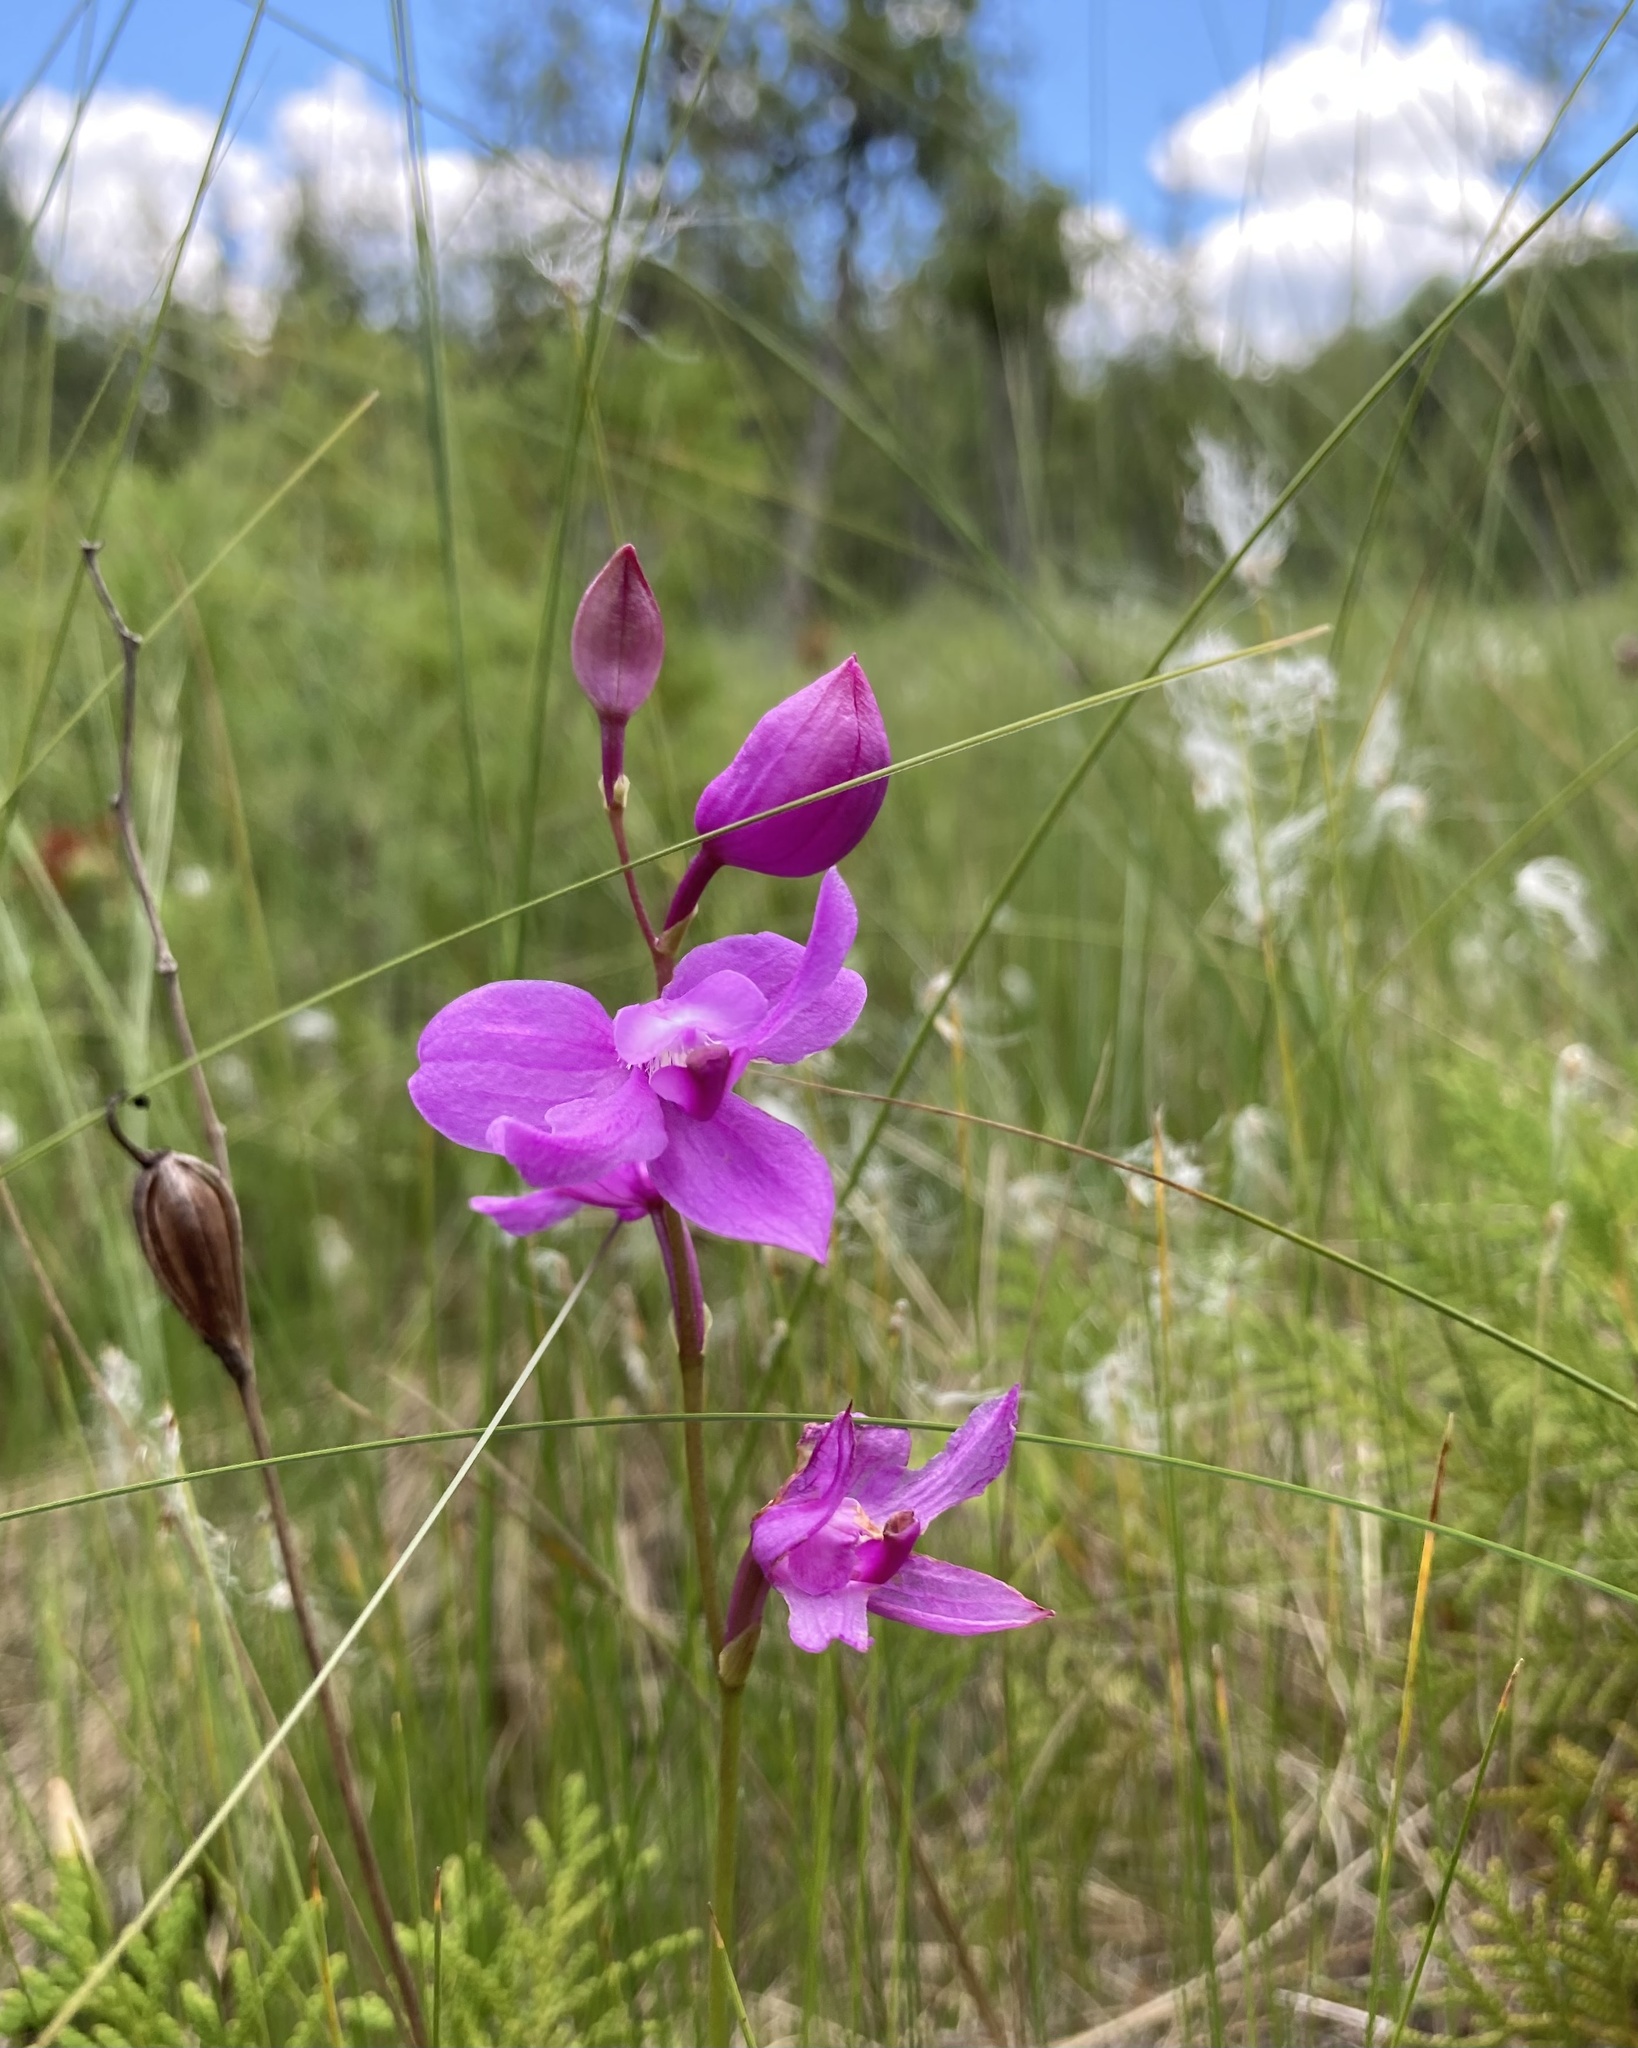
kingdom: Plantae
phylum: Tracheophyta
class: Liliopsida
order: Asparagales
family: Orchidaceae
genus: Calopogon
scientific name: Calopogon tuberosus
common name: Grass-pink
